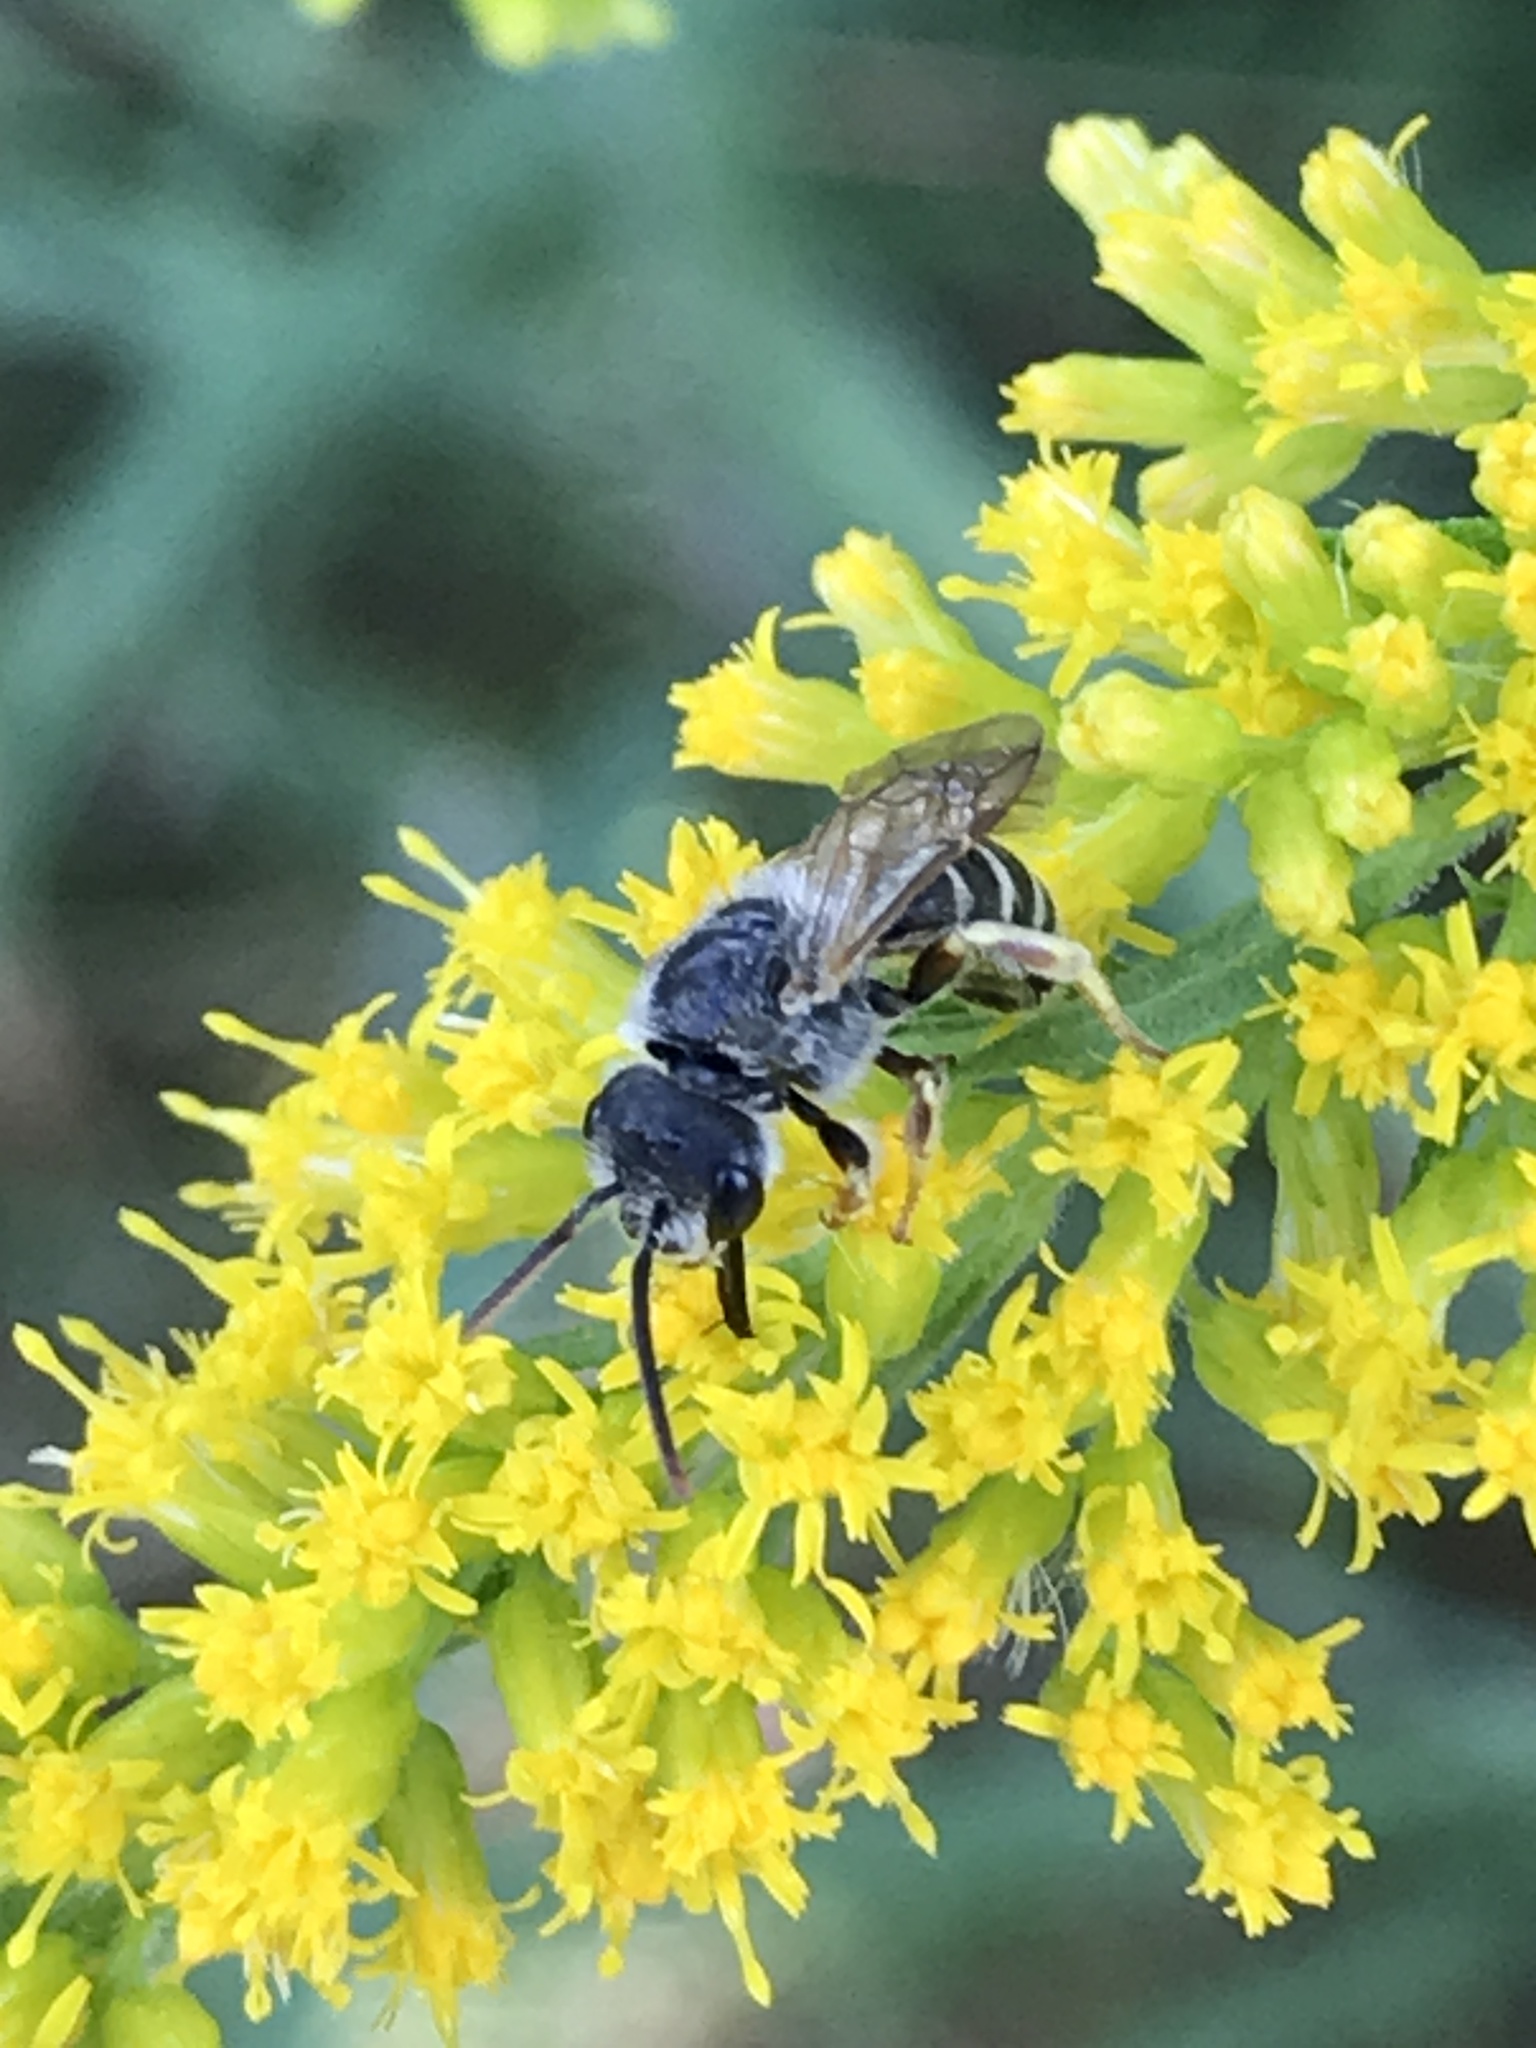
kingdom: Animalia
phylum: Arthropoda
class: Insecta
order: Hymenoptera
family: Halictidae
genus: Halictus
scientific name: Halictus ligatus
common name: Ligated furrow bee
